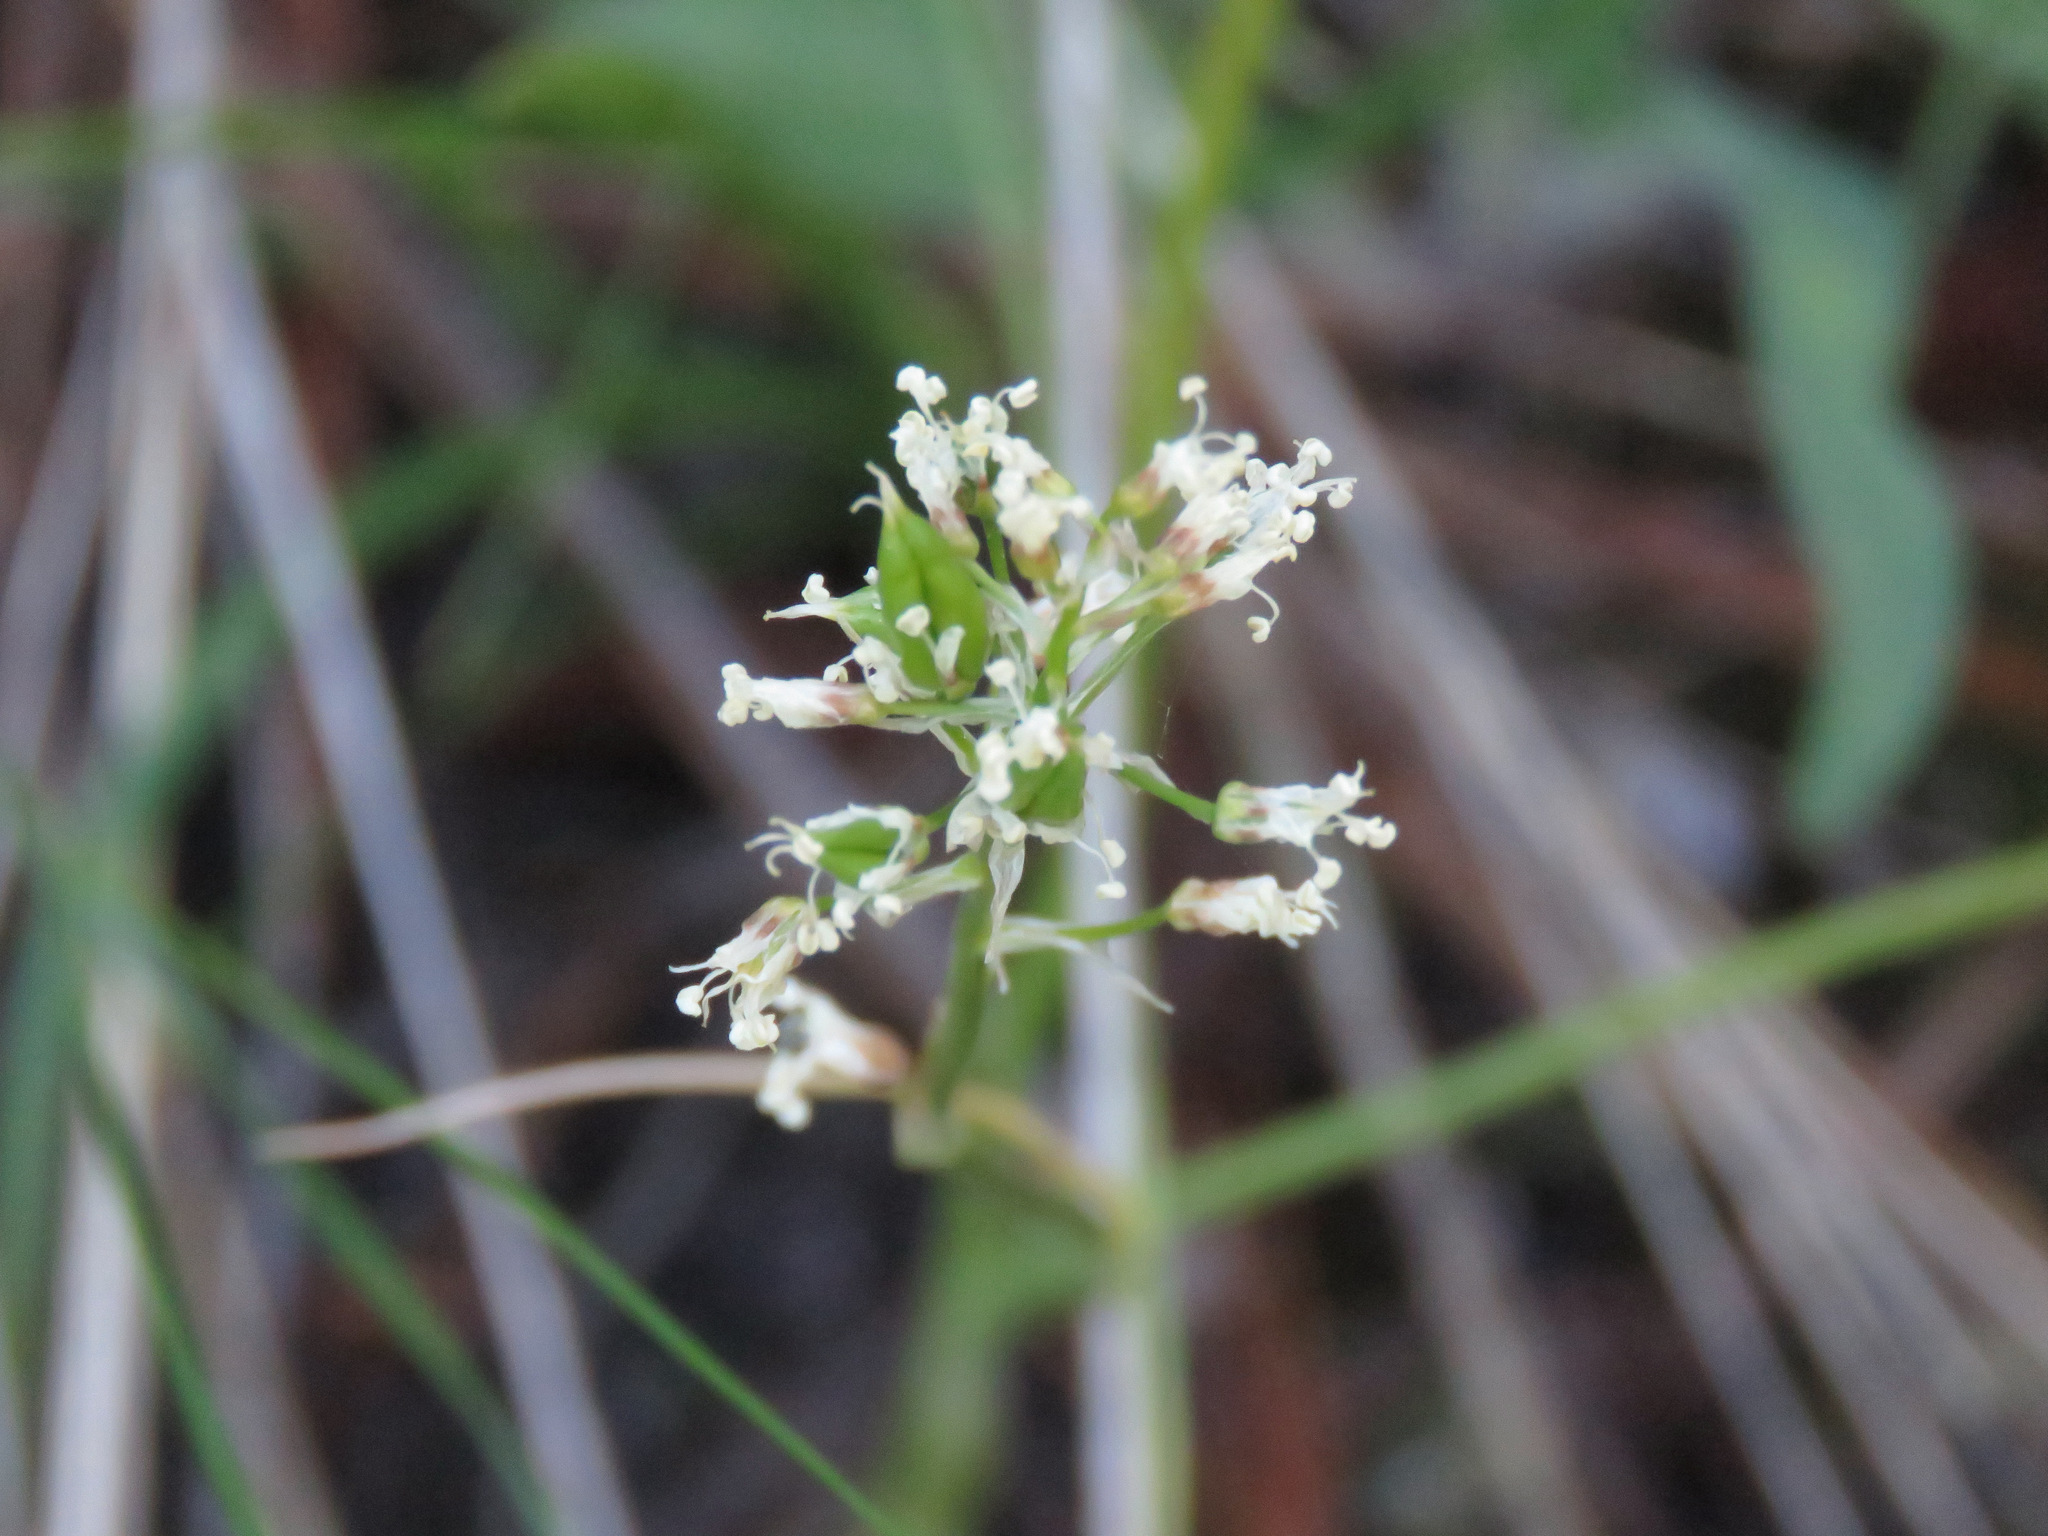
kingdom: Plantae
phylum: Tracheophyta
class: Liliopsida
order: Liliales
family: Melanthiaceae
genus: Toxicoscordion
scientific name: Toxicoscordion venenosum
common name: Meadow death camas
